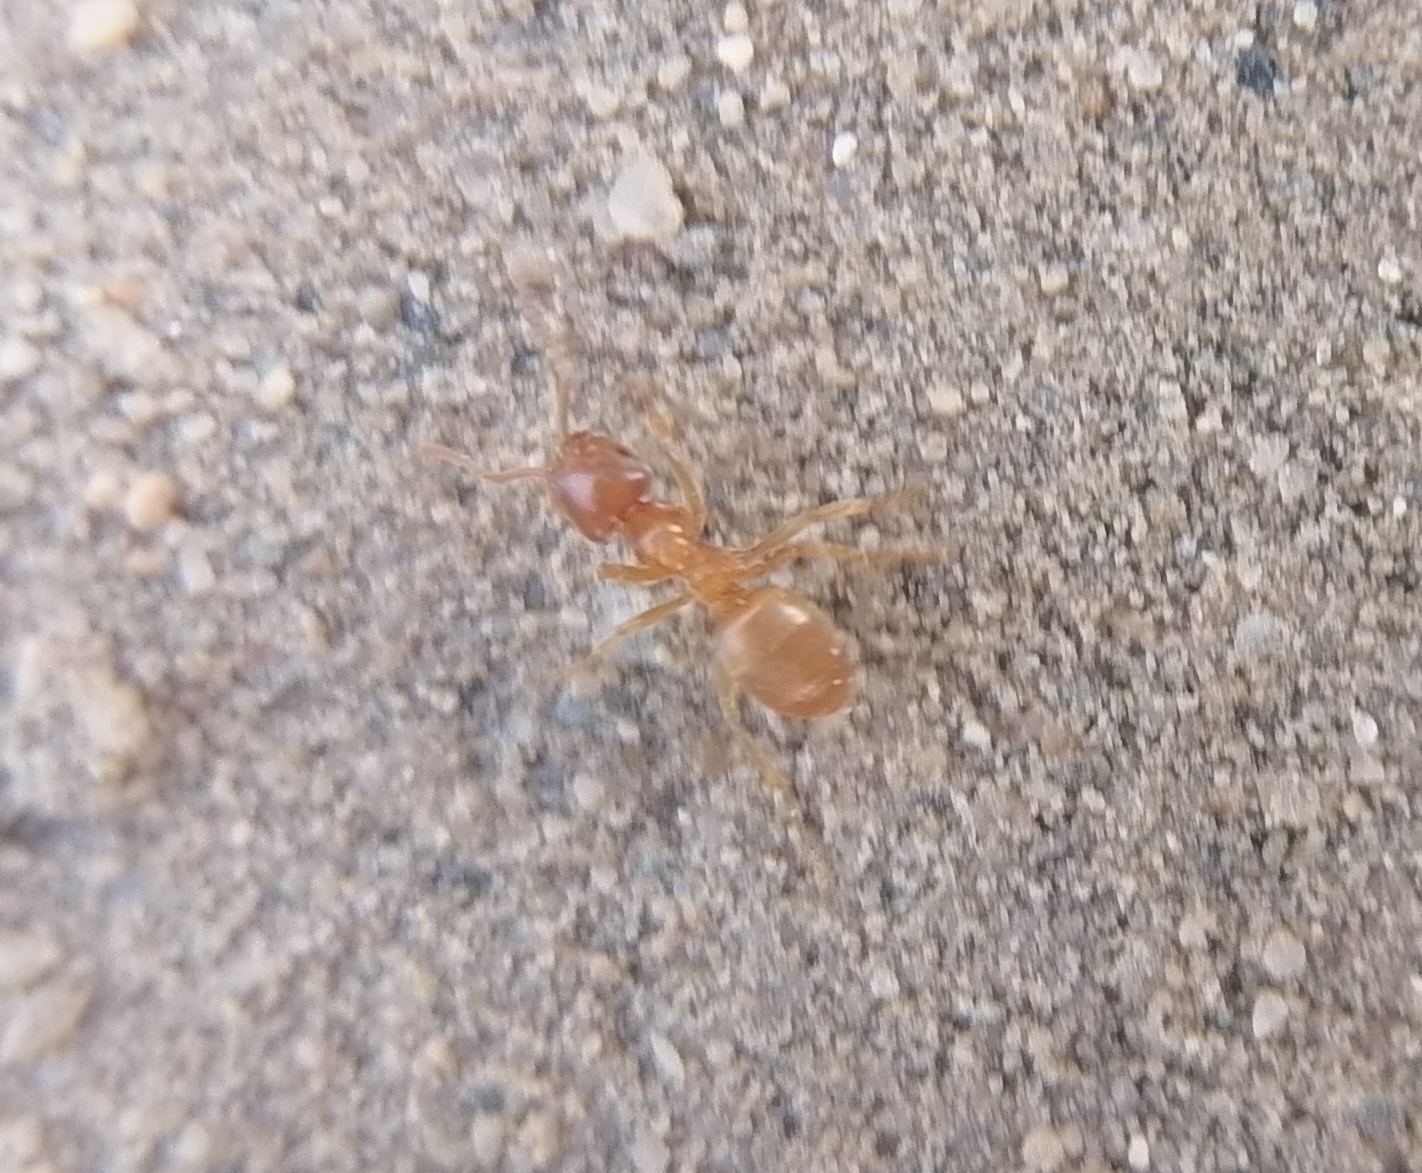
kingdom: Animalia
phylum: Arthropoda
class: Insecta
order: Hymenoptera
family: Formicidae
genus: Lasius
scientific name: Lasius flavus
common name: Blond field ant
